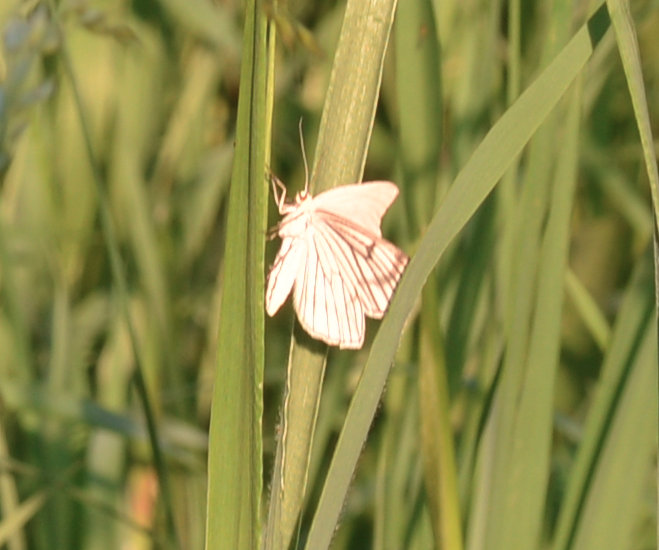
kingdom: Animalia
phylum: Arthropoda
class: Insecta
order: Lepidoptera
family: Geometridae
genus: Siona
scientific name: Siona lineata
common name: Black-veined moth
